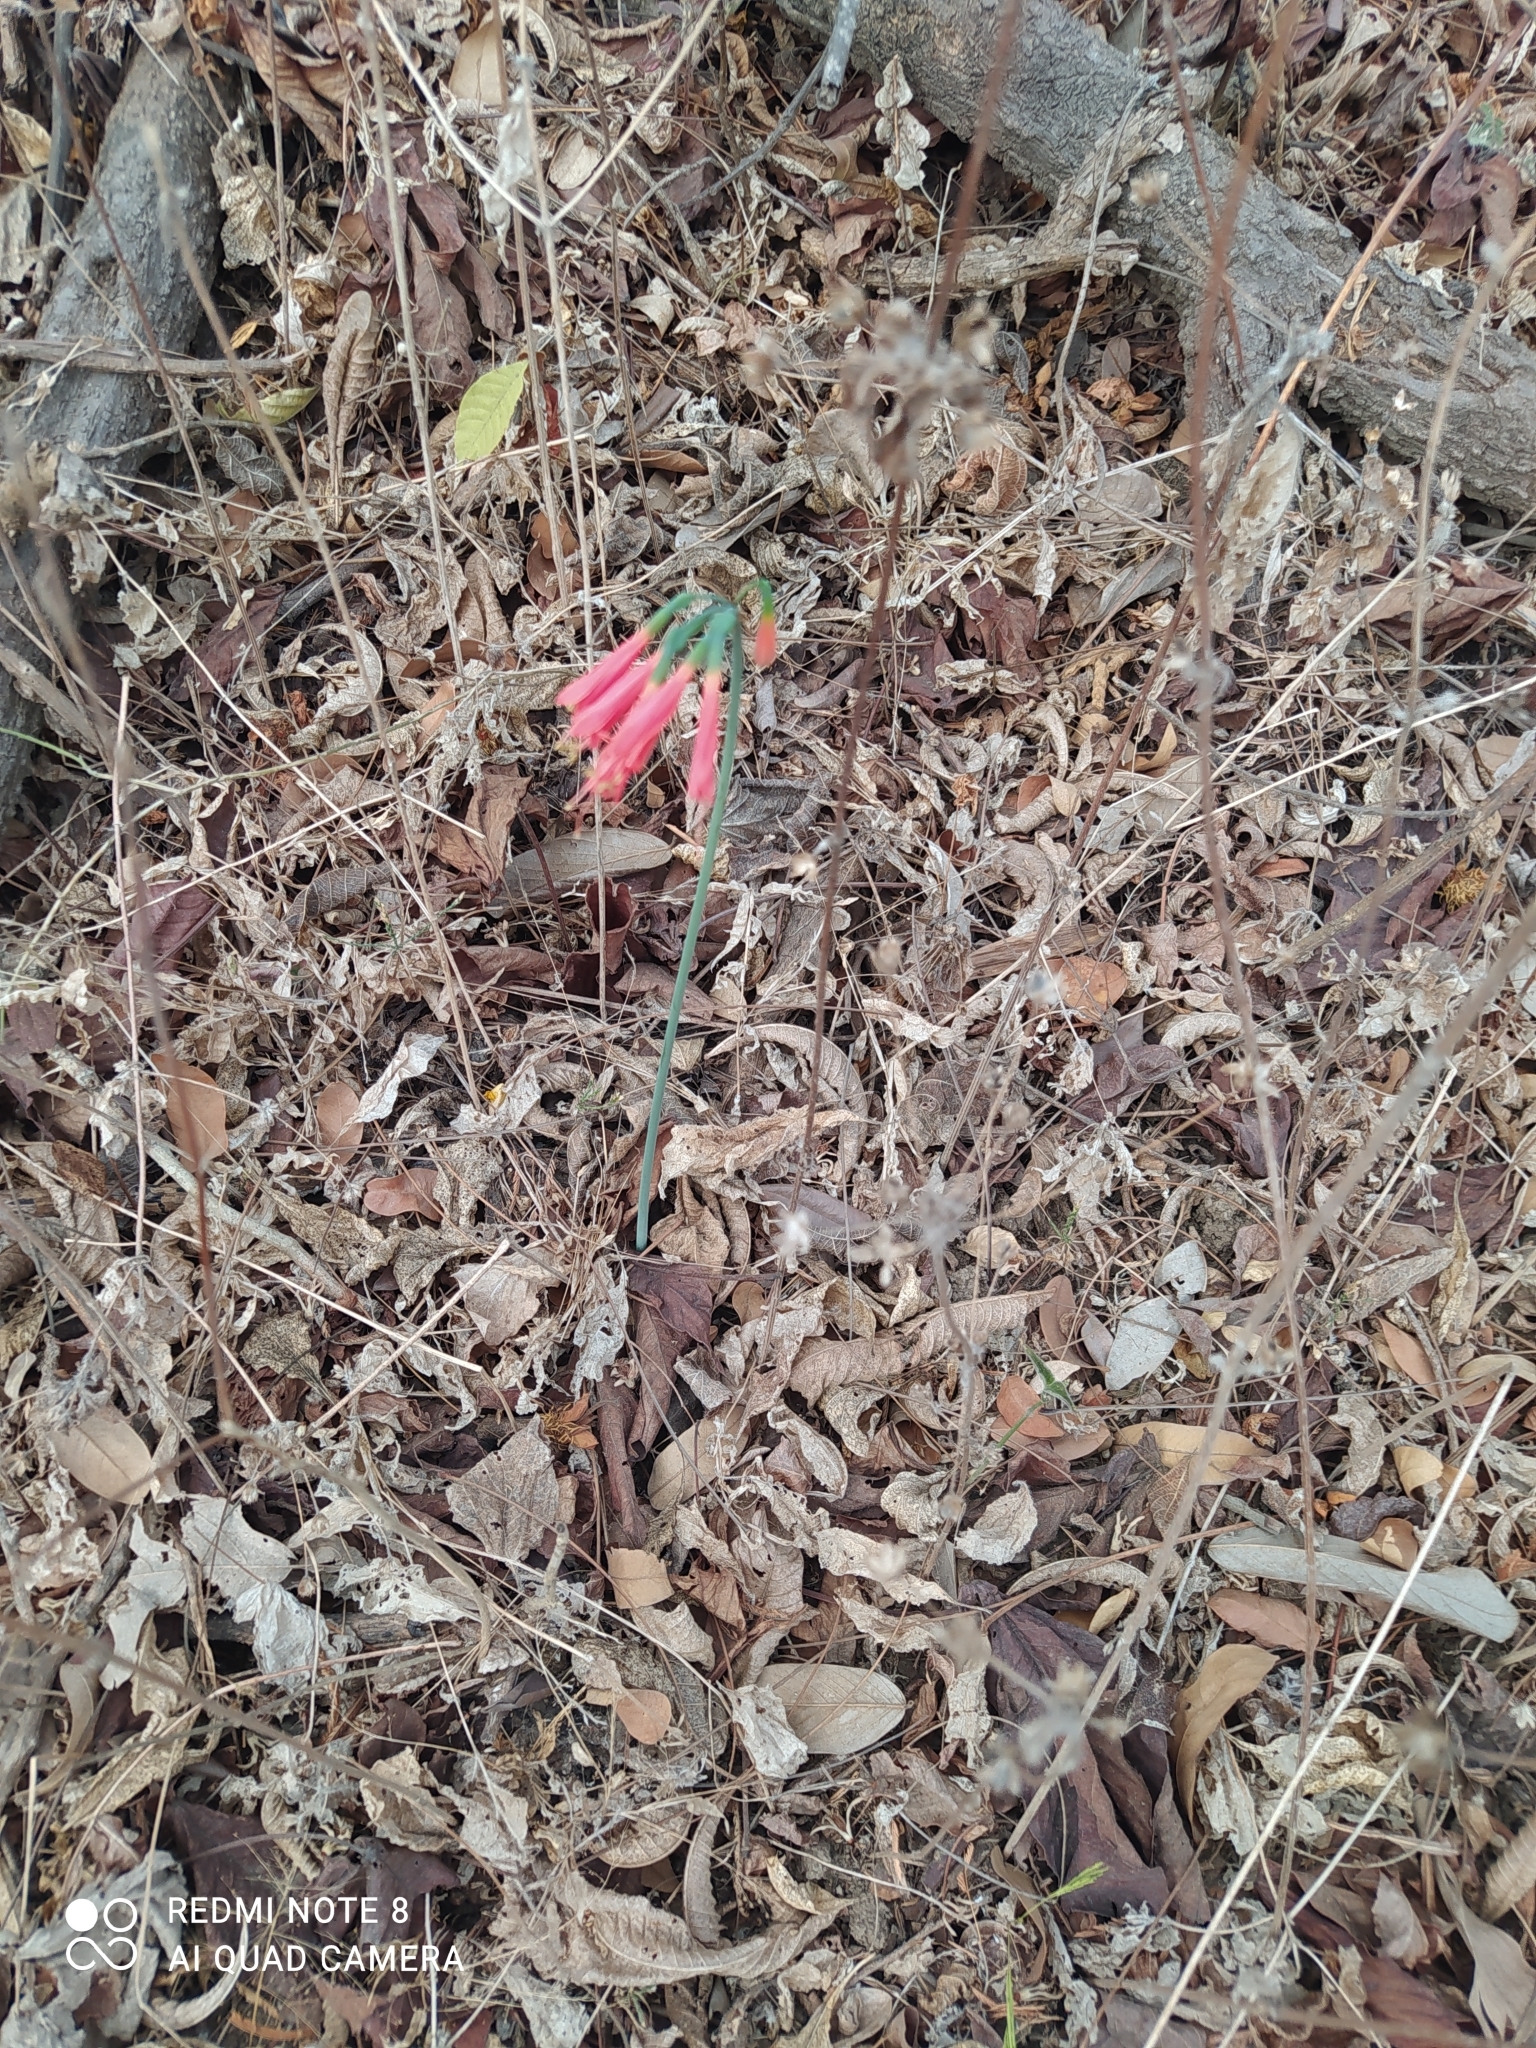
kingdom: Plantae
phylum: Tracheophyta
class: Liliopsida
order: Asparagales
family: Amaryllidaceae
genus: Eucrosia
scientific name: Eucrosia stricklandii
